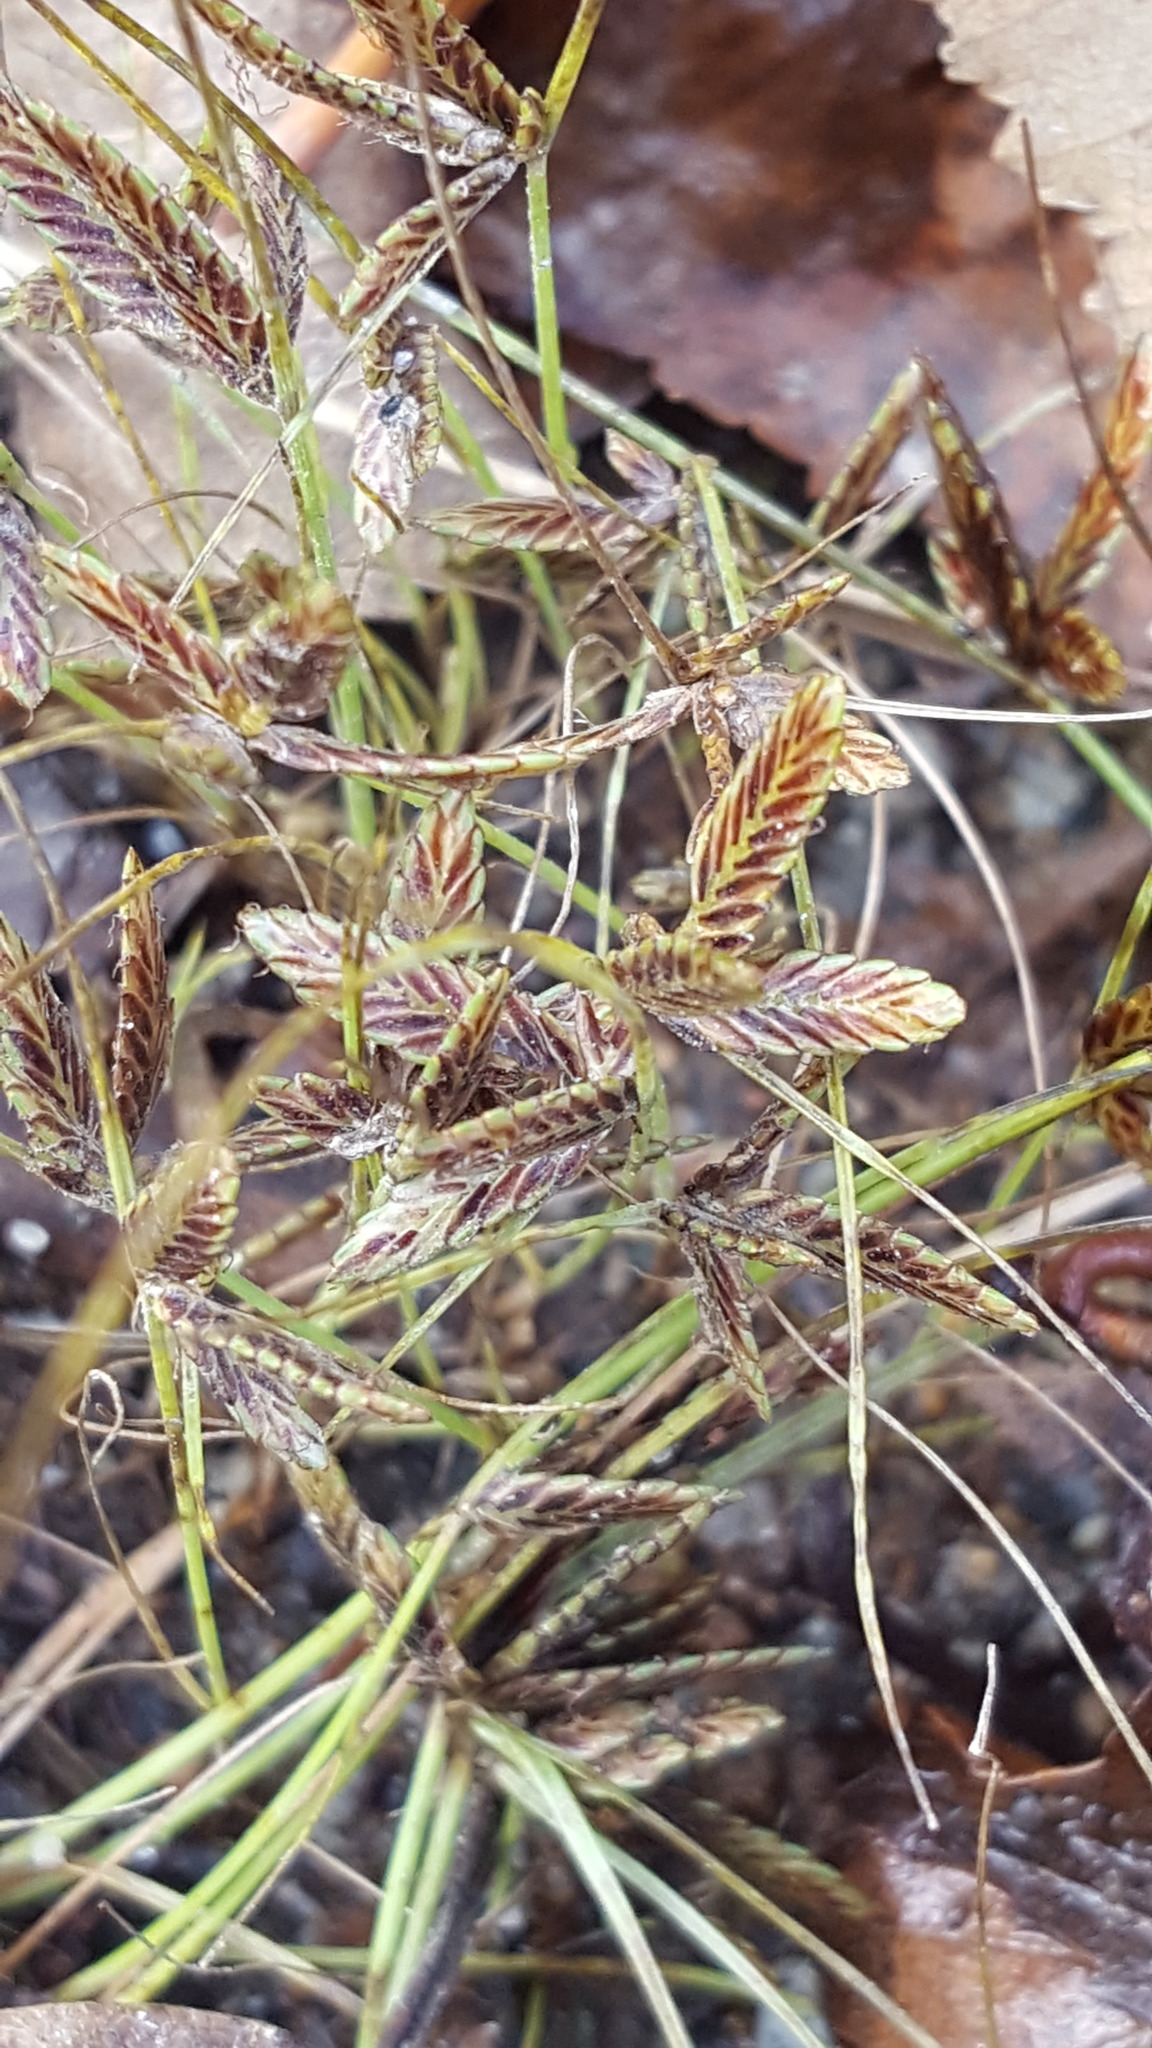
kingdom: Plantae
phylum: Tracheophyta
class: Liliopsida
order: Poales
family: Cyperaceae
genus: Cyperus
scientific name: Cyperus bipartitus
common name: Brook flatsedge
